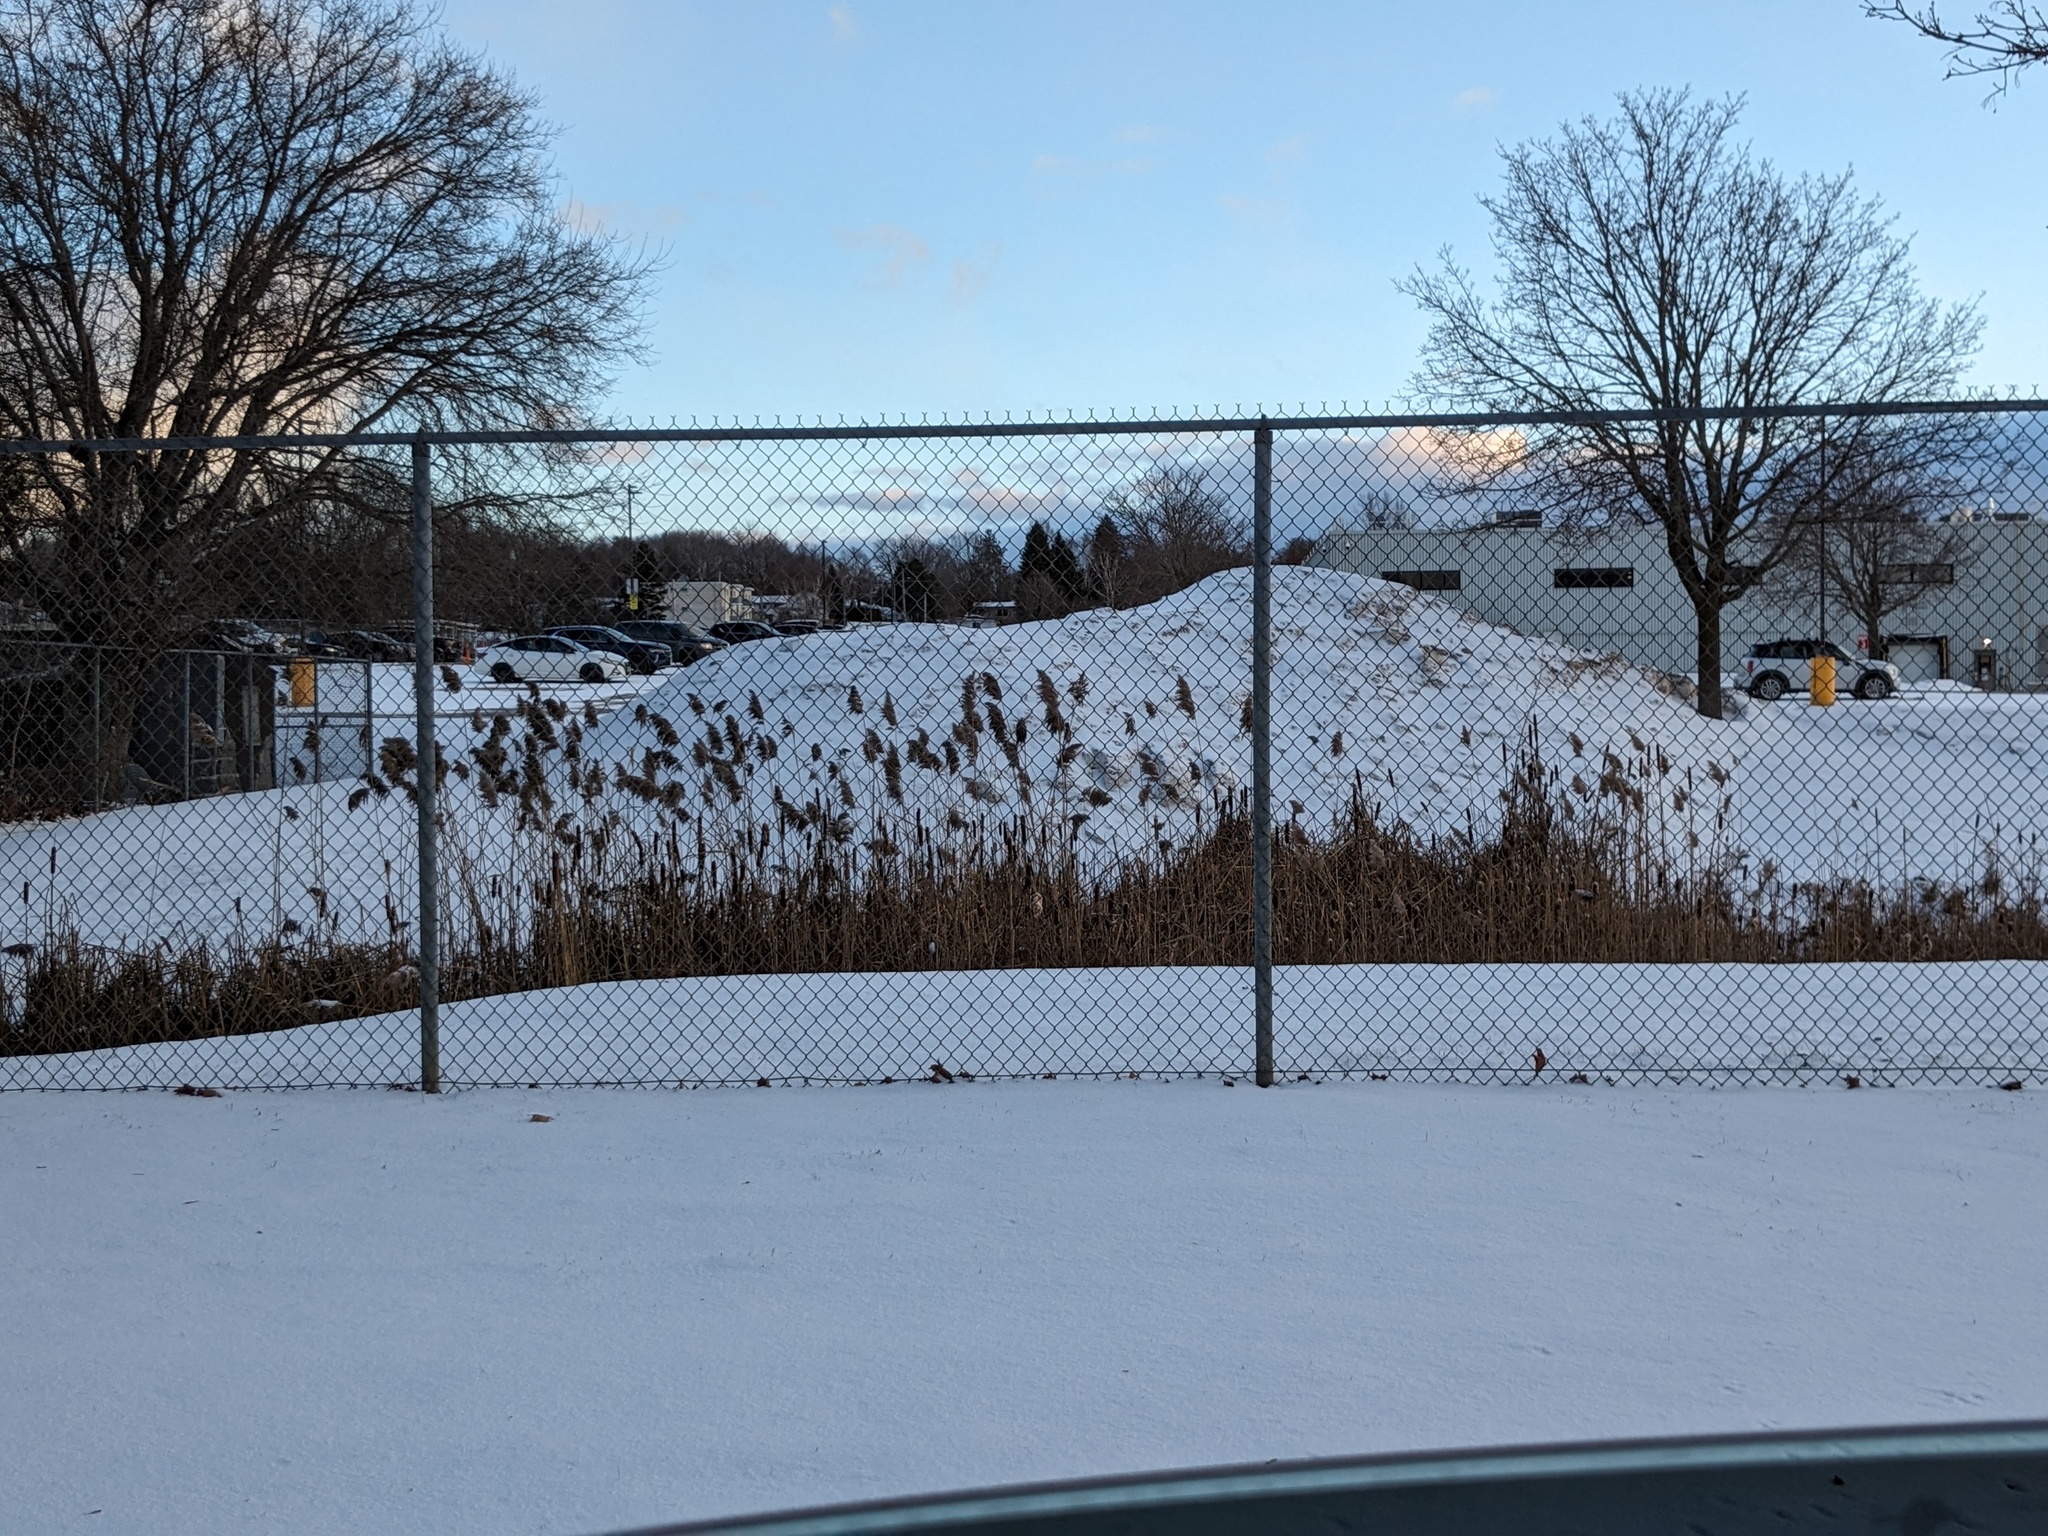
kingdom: Plantae
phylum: Tracheophyta
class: Liliopsida
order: Poales
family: Poaceae
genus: Phragmites
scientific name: Phragmites australis
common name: Common reed
